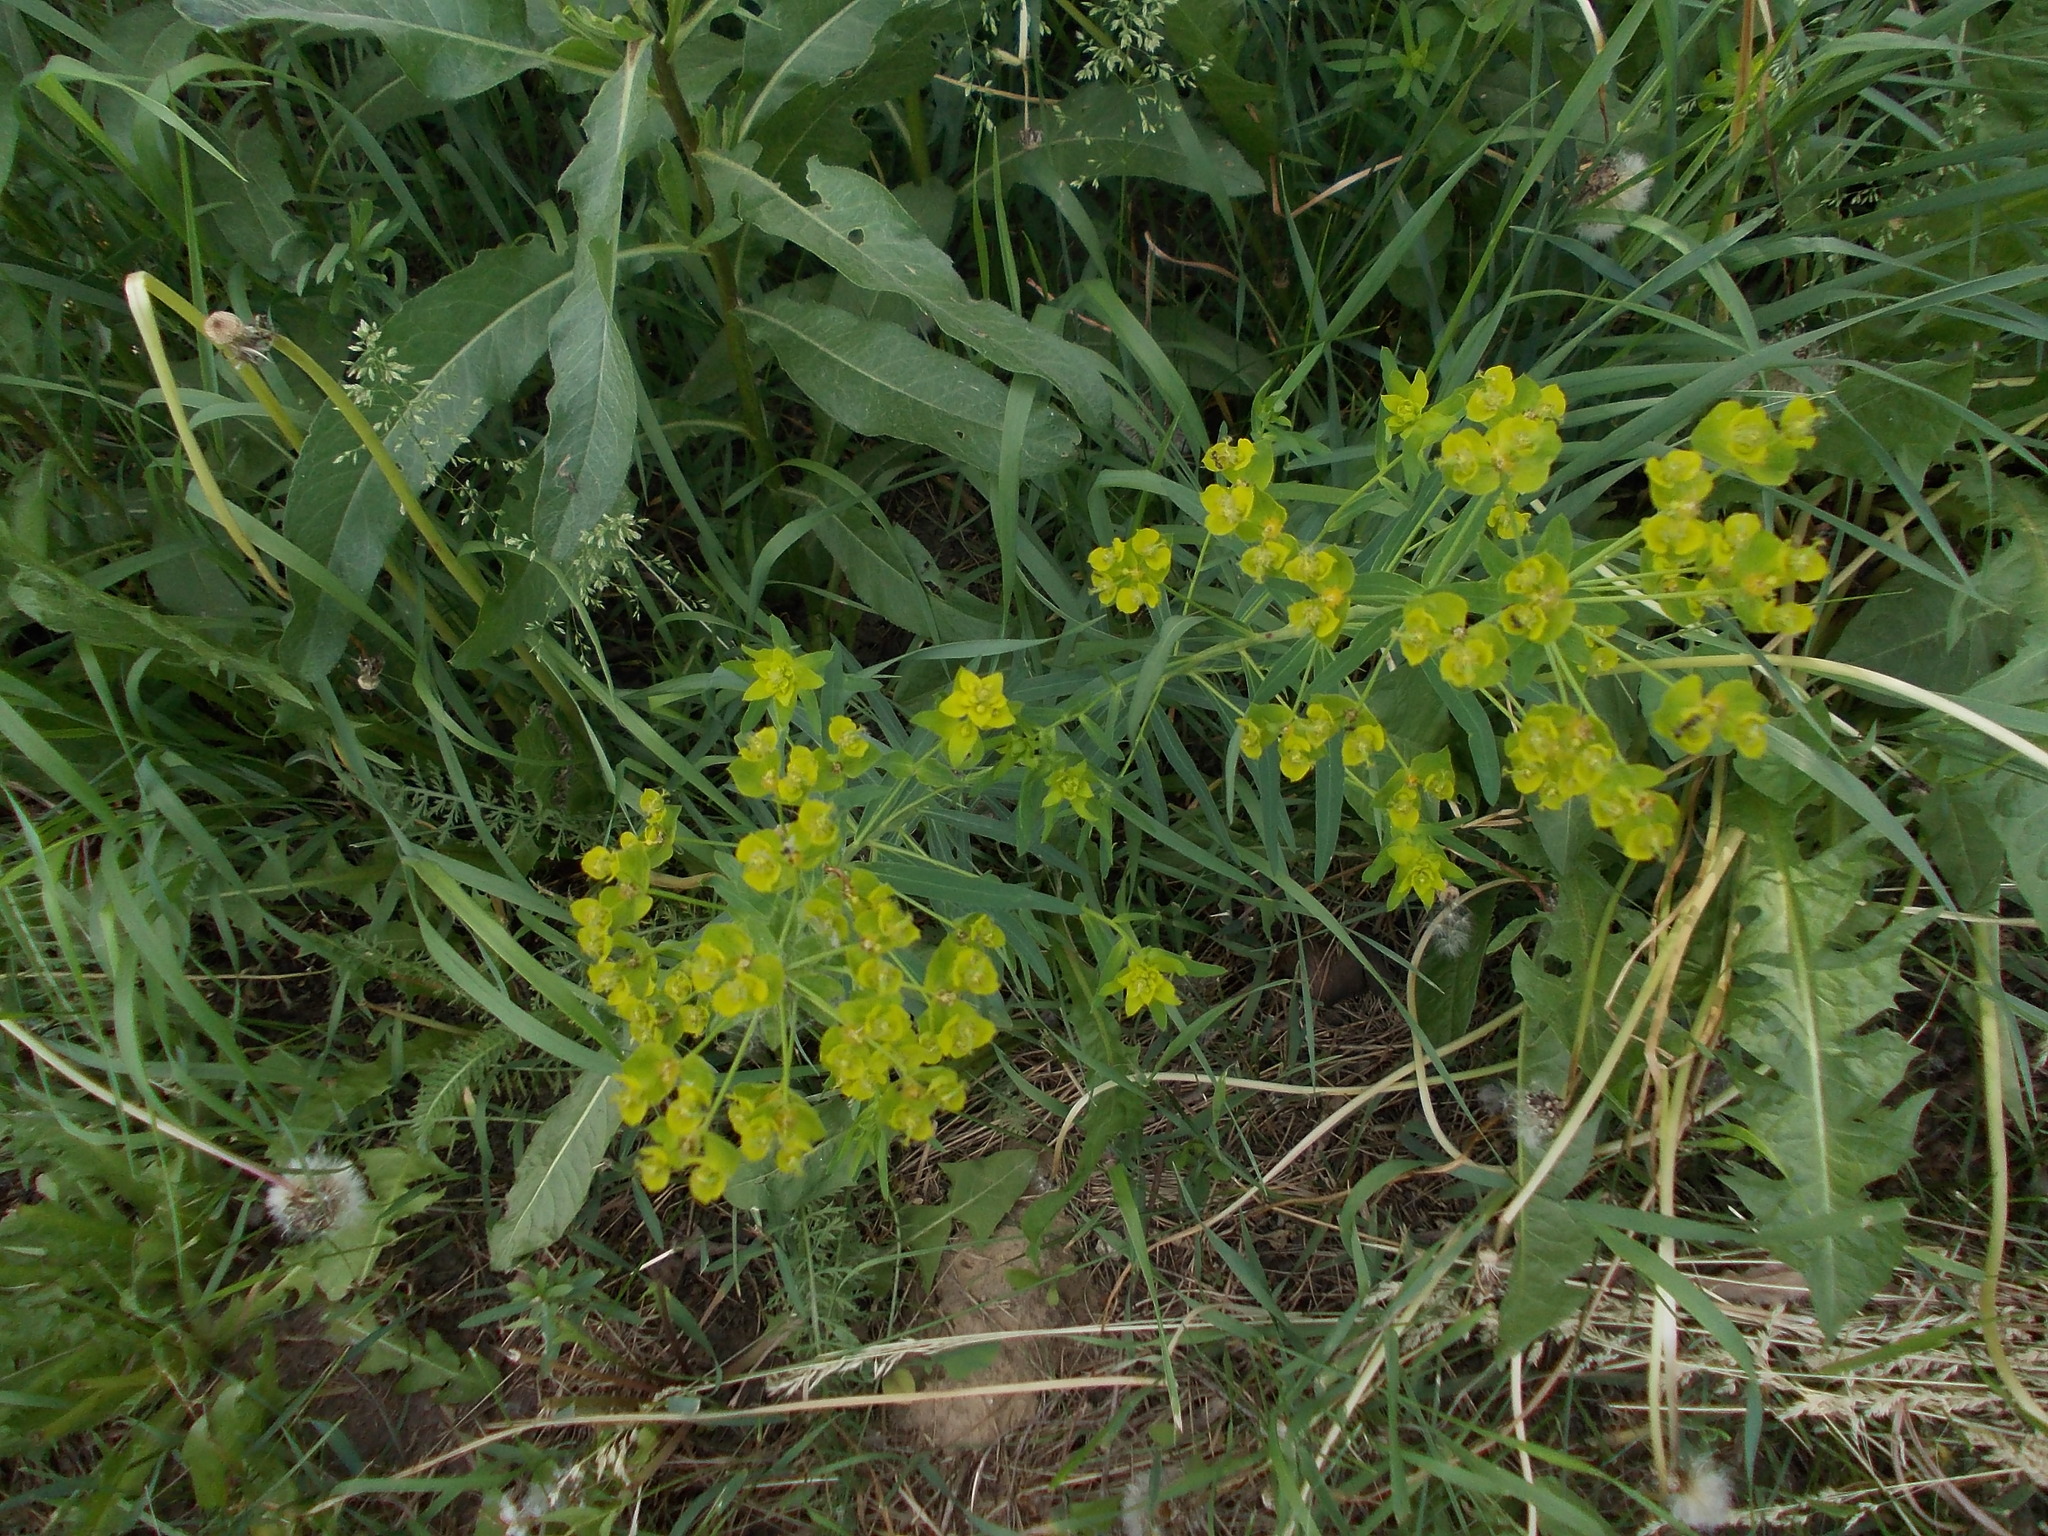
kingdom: Plantae
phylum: Tracheophyta
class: Magnoliopsida
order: Malpighiales
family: Euphorbiaceae
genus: Euphorbia
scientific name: Euphorbia virgata
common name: Leafy spurge
